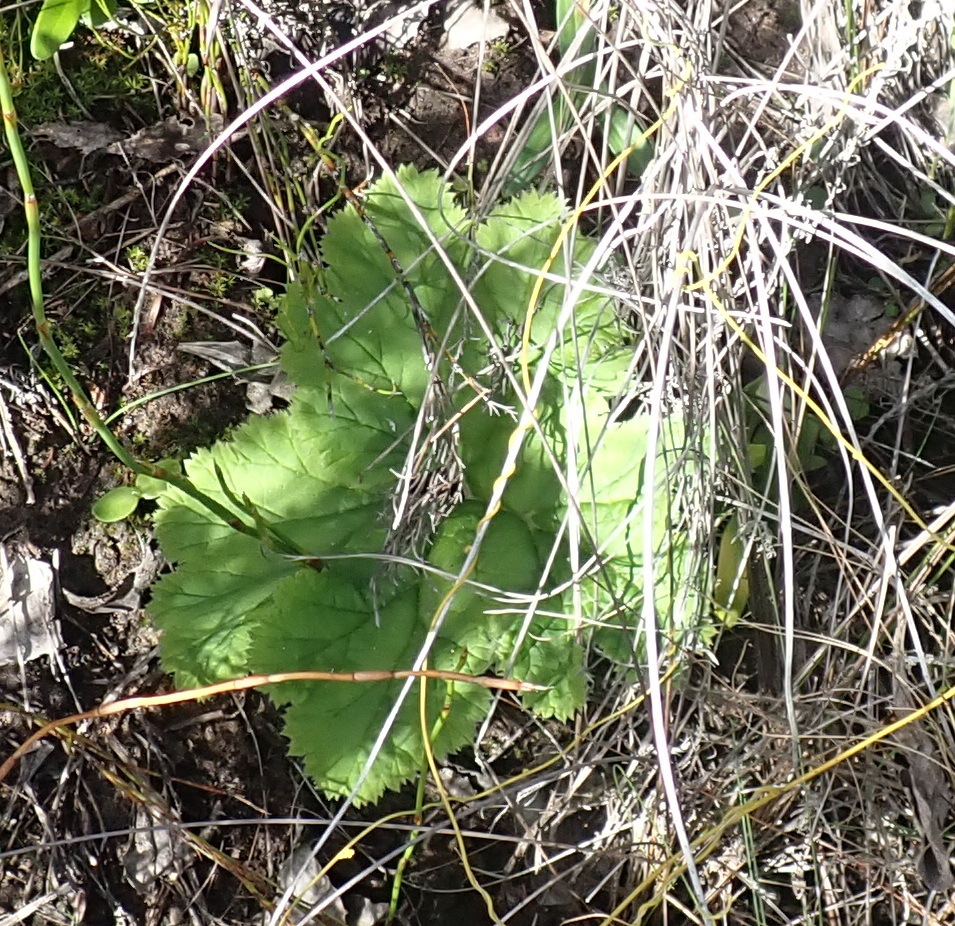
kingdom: Plantae
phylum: Tracheophyta
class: Magnoliopsida
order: Geraniales
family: Geraniaceae
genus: Pelargonium
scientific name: Pelargonium lobatum
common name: Vine-leaf pelargonium
